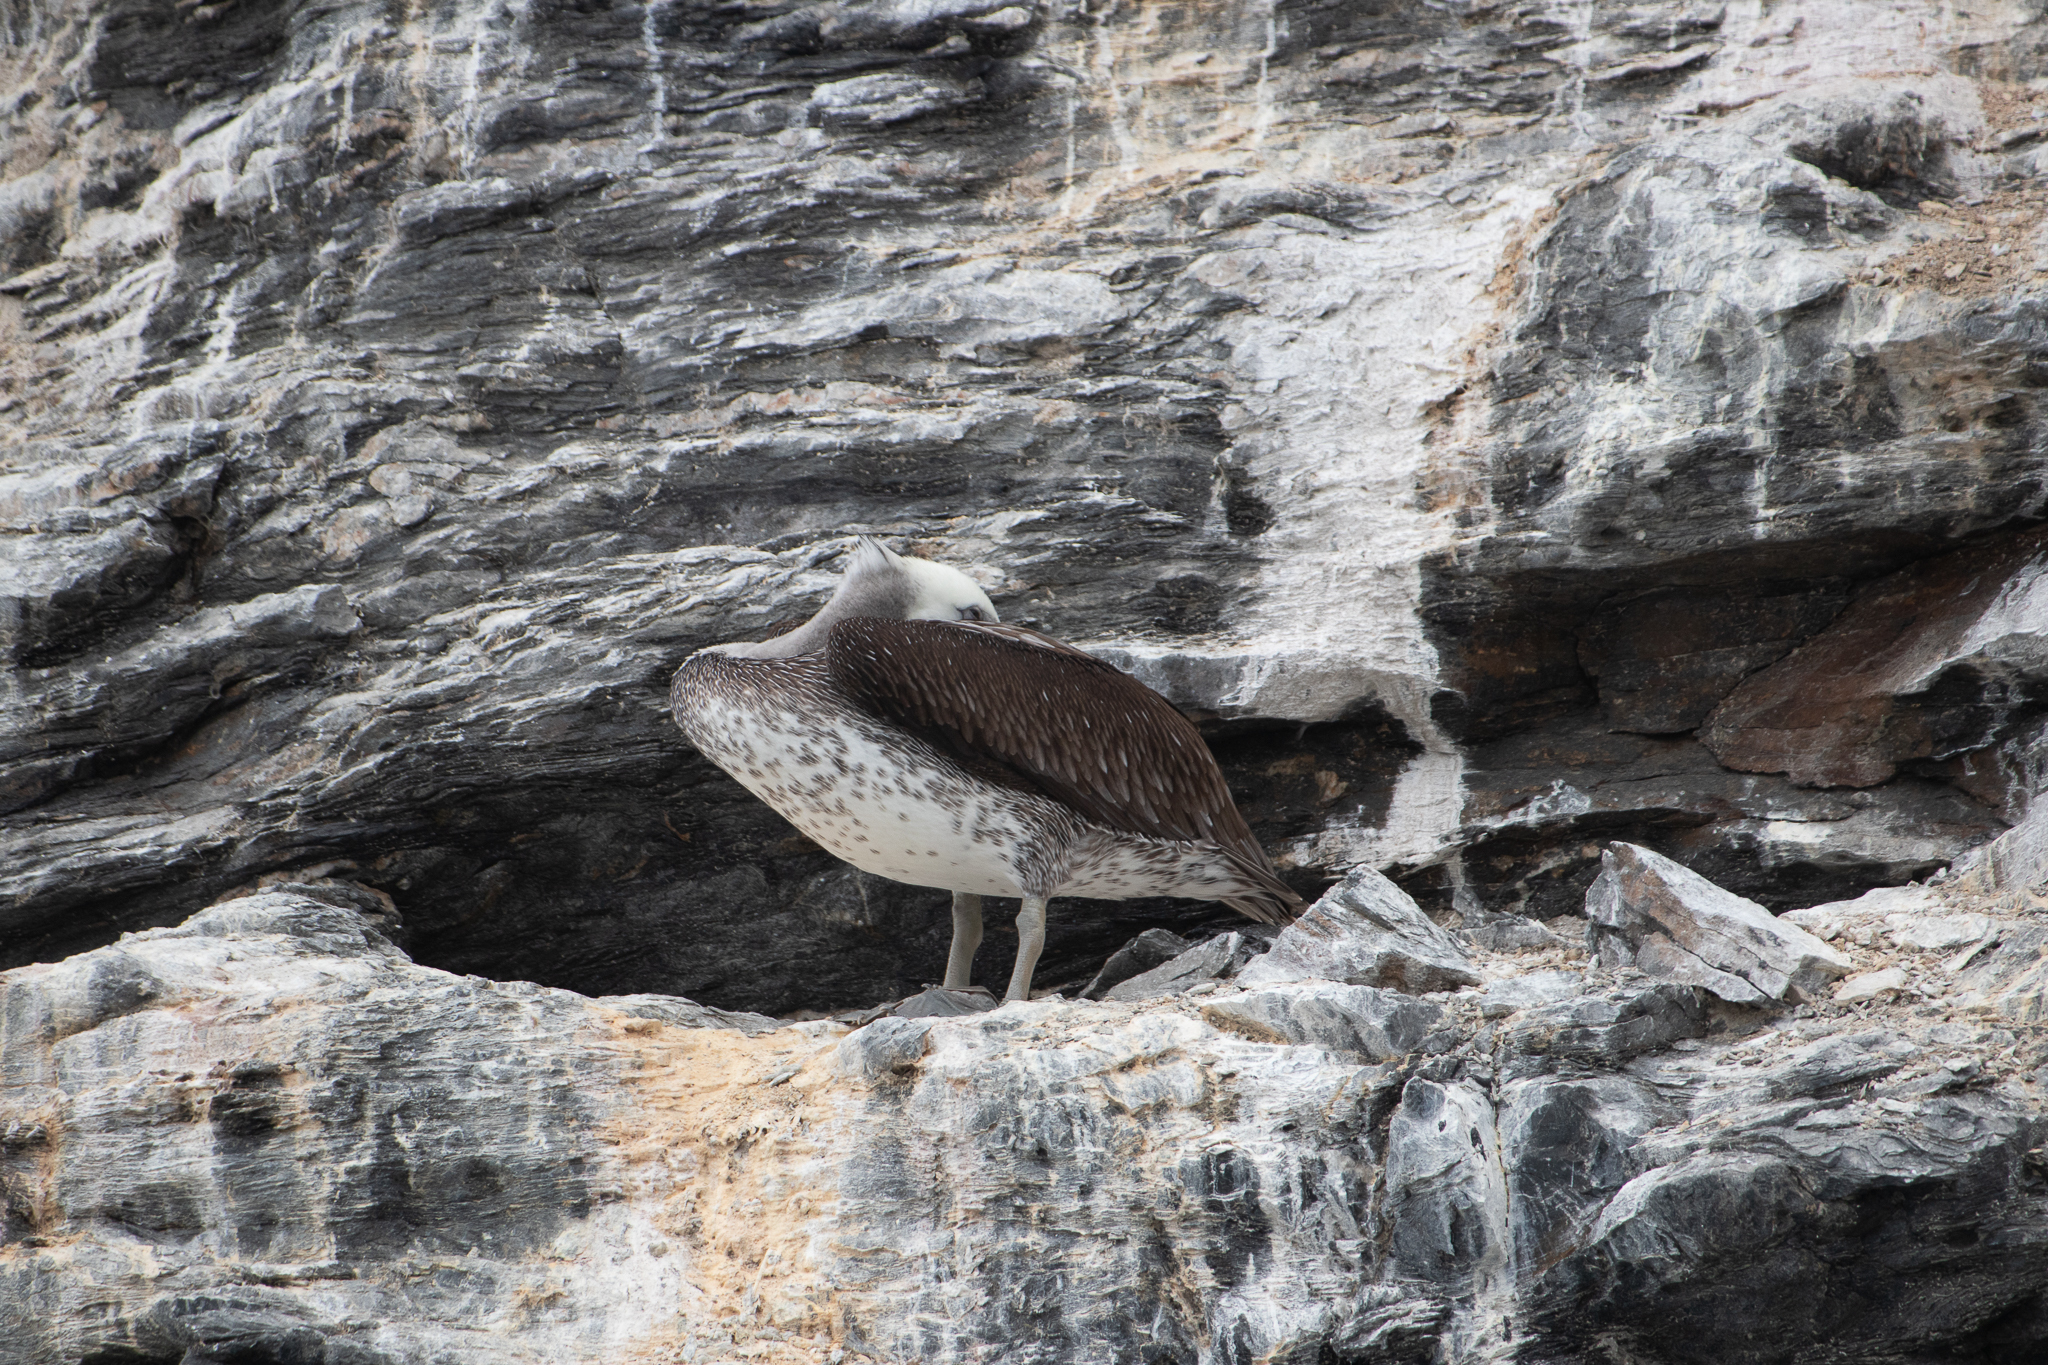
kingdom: Animalia
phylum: Chordata
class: Aves
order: Pelecaniformes
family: Pelecanidae
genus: Pelecanus
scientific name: Pelecanus thagus
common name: Peruvian pelican
